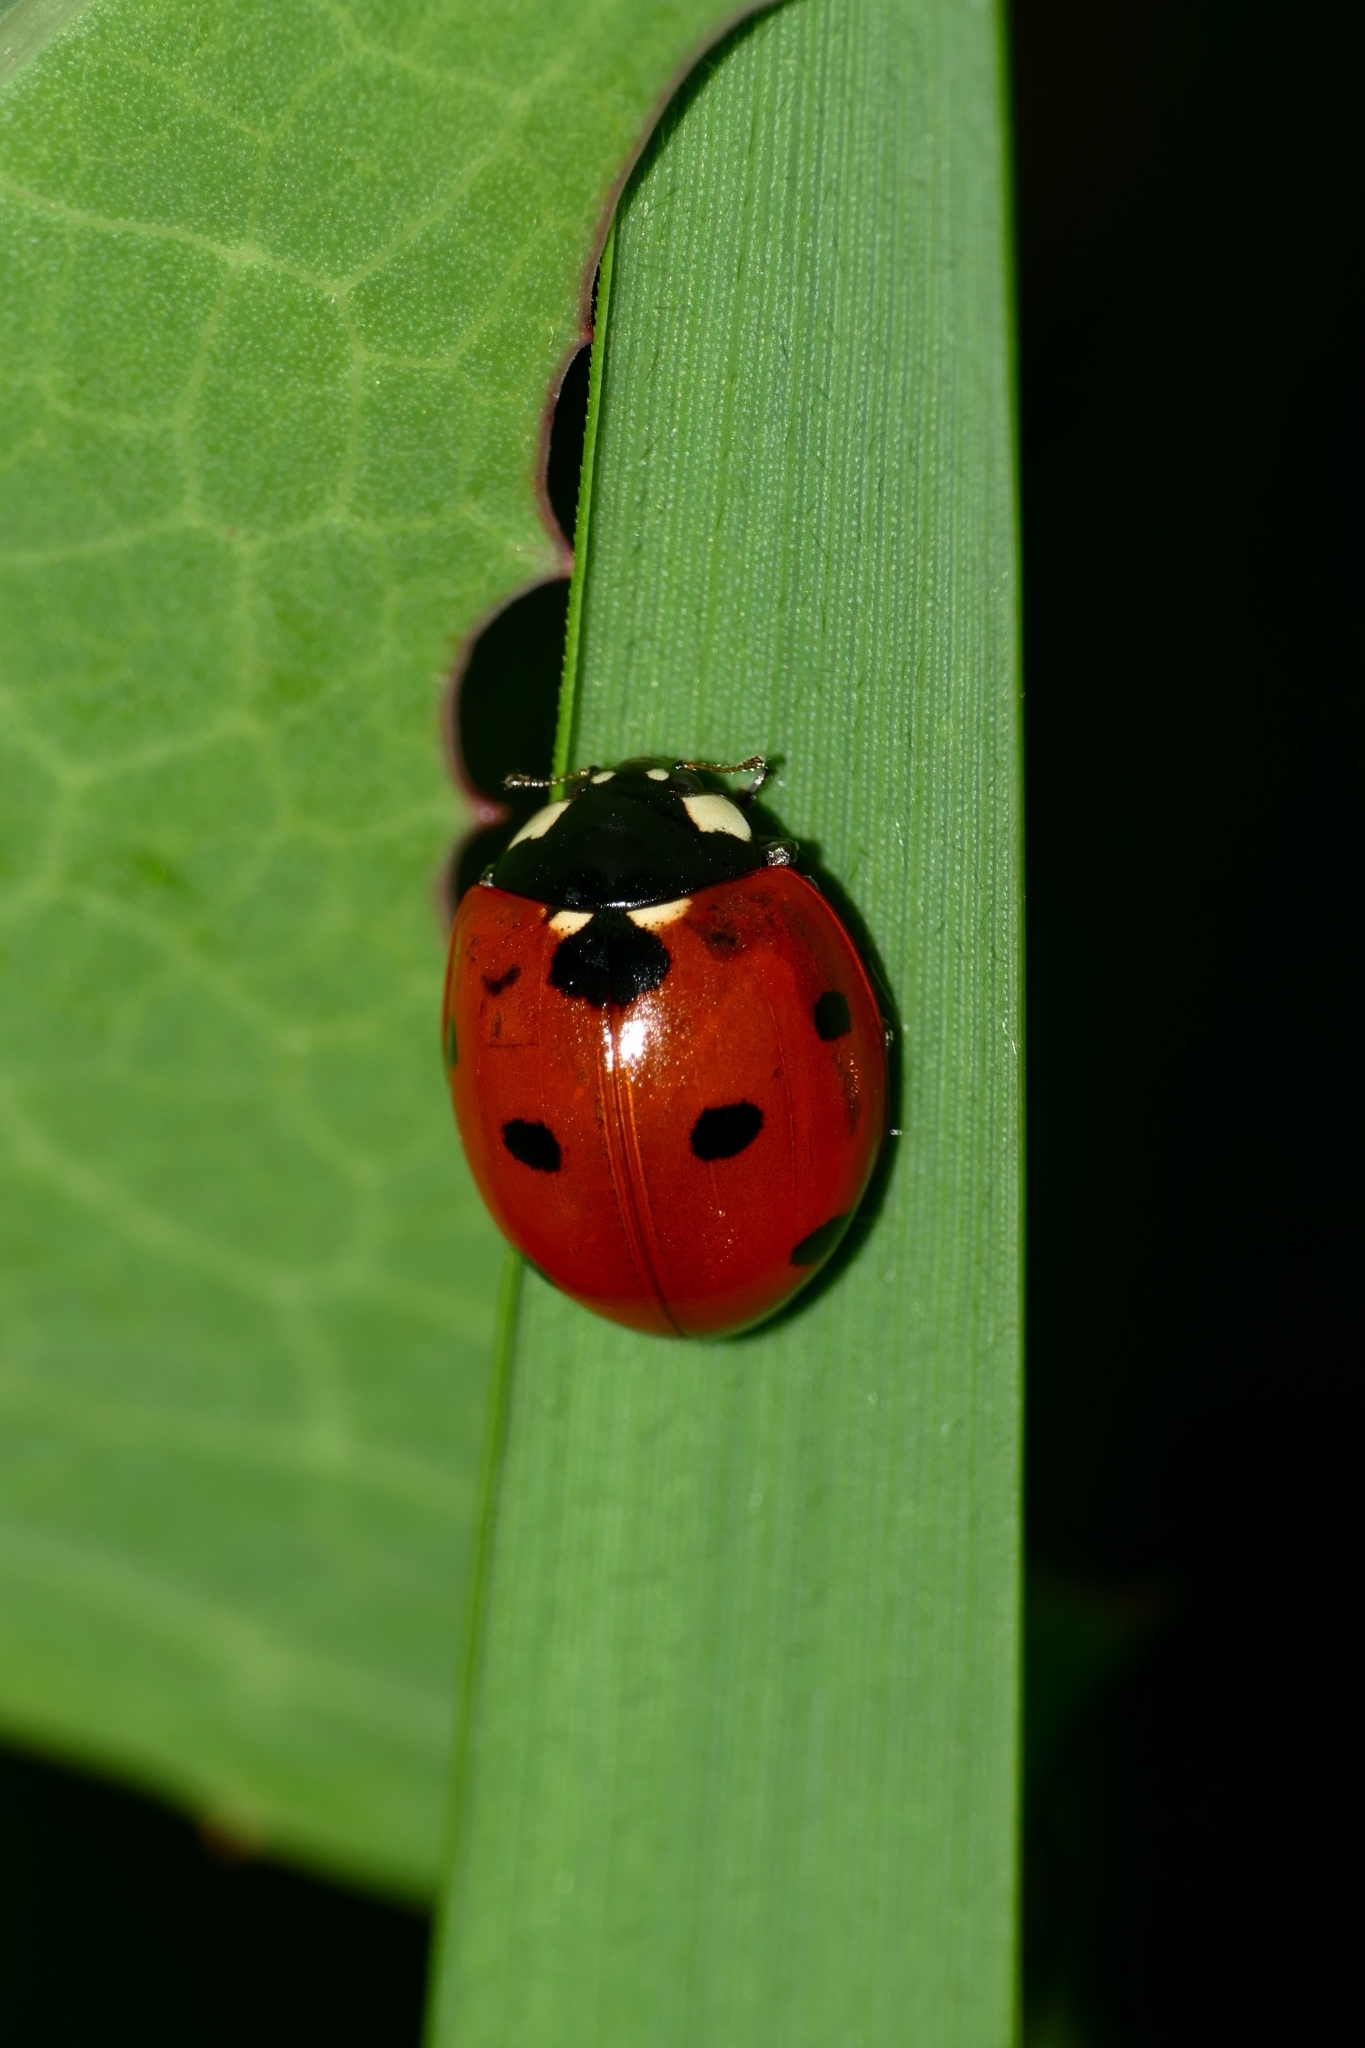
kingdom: Animalia
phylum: Arthropoda
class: Insecta
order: Coleoptera
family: Coccinellidae
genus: Coccinella
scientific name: Coccinella septempunctata
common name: Sevenspotted lady beetle
